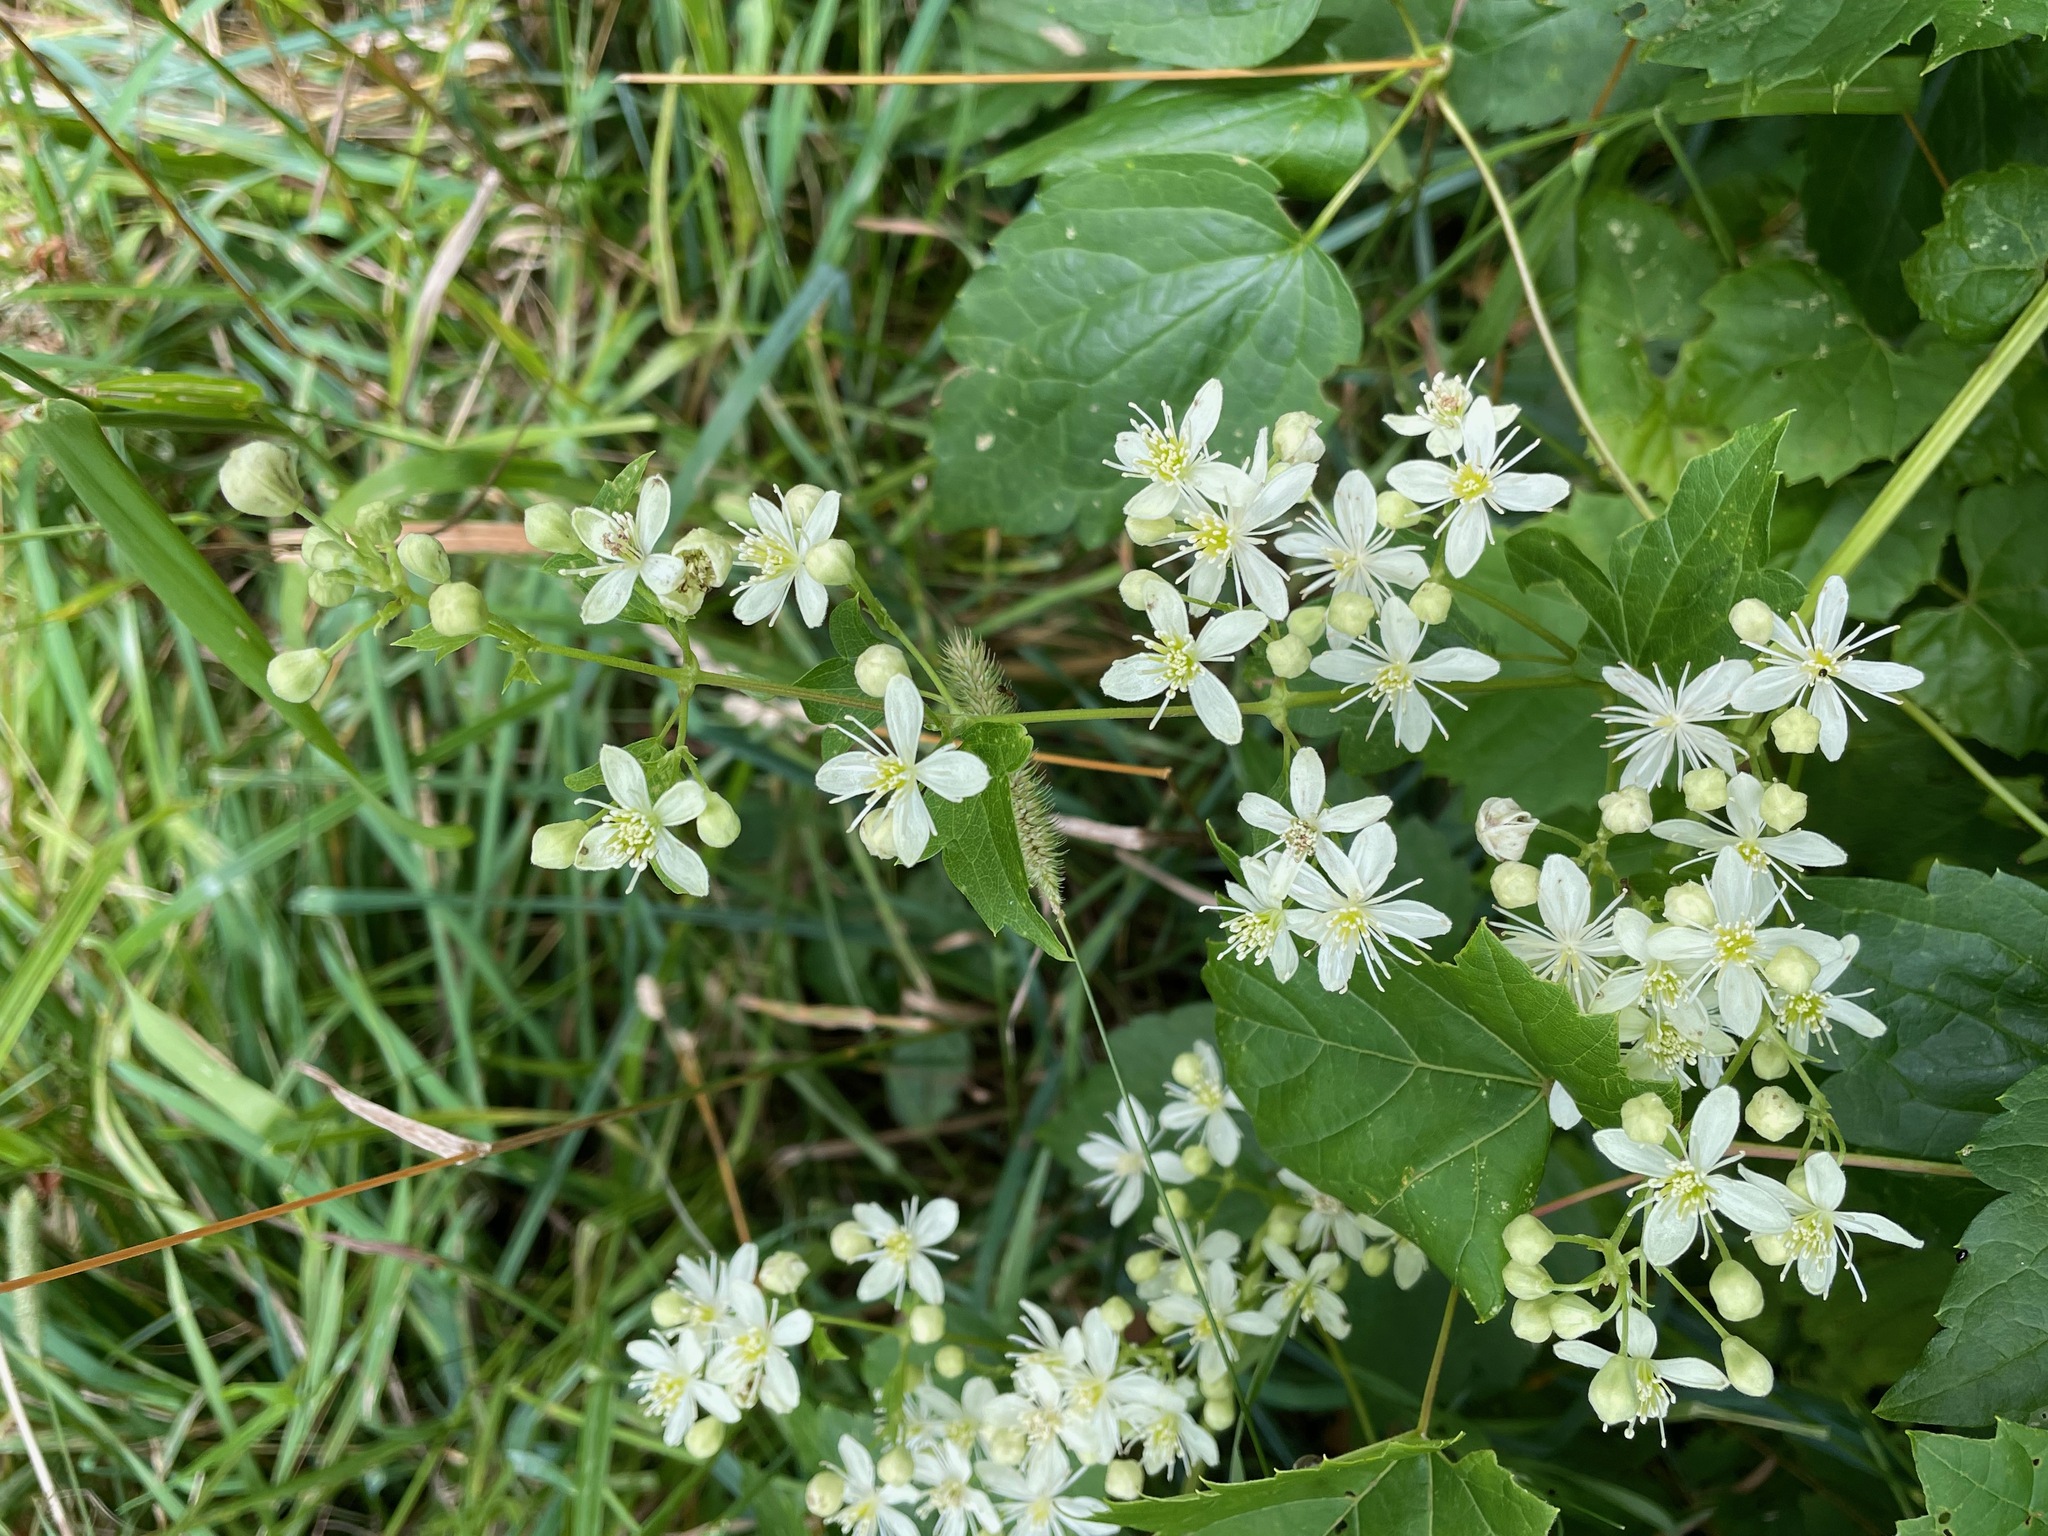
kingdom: Plantae
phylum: Tracheophyta
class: Magnoliopsida
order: Ranunculales
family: Ranunculaceae
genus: Clematis
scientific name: Clematis virginiana
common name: Virgin's-bower
